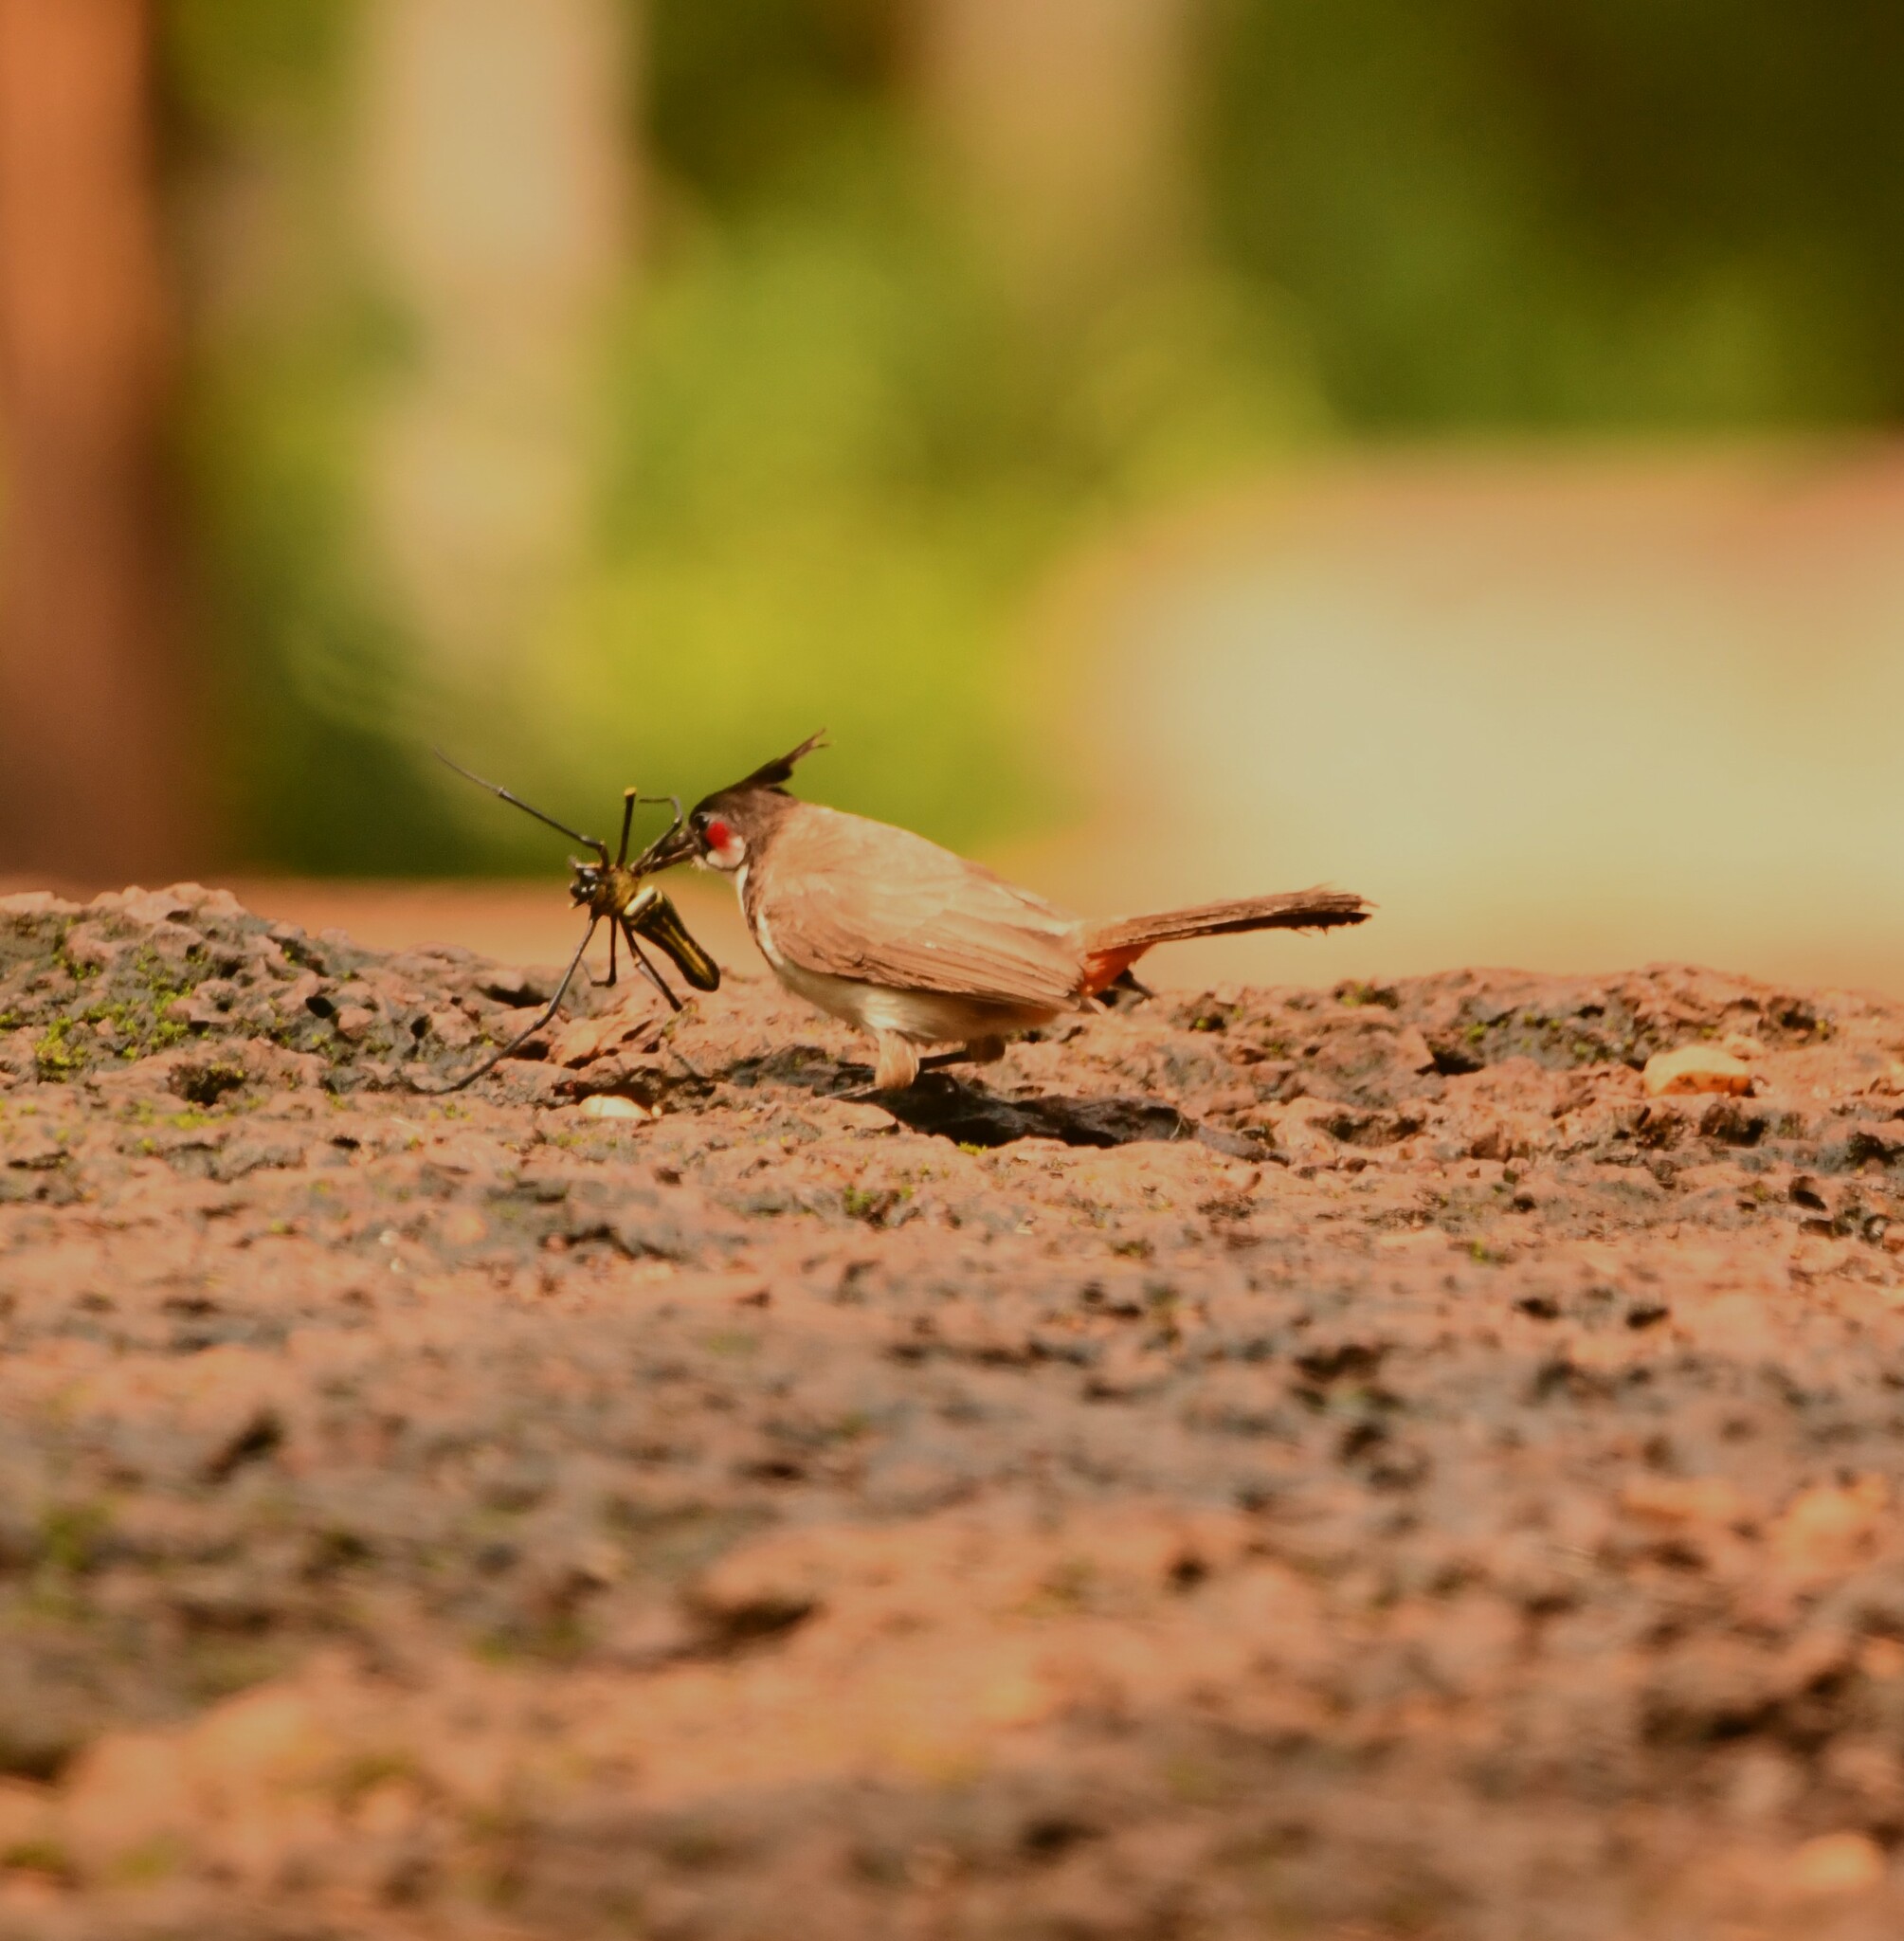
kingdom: Animalia
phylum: Chordata
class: Aves
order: Passeriformes
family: Pycnonotidae
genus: Pycnonotus
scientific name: Pycnonotus jocosus
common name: Red-whiskered bulbul
